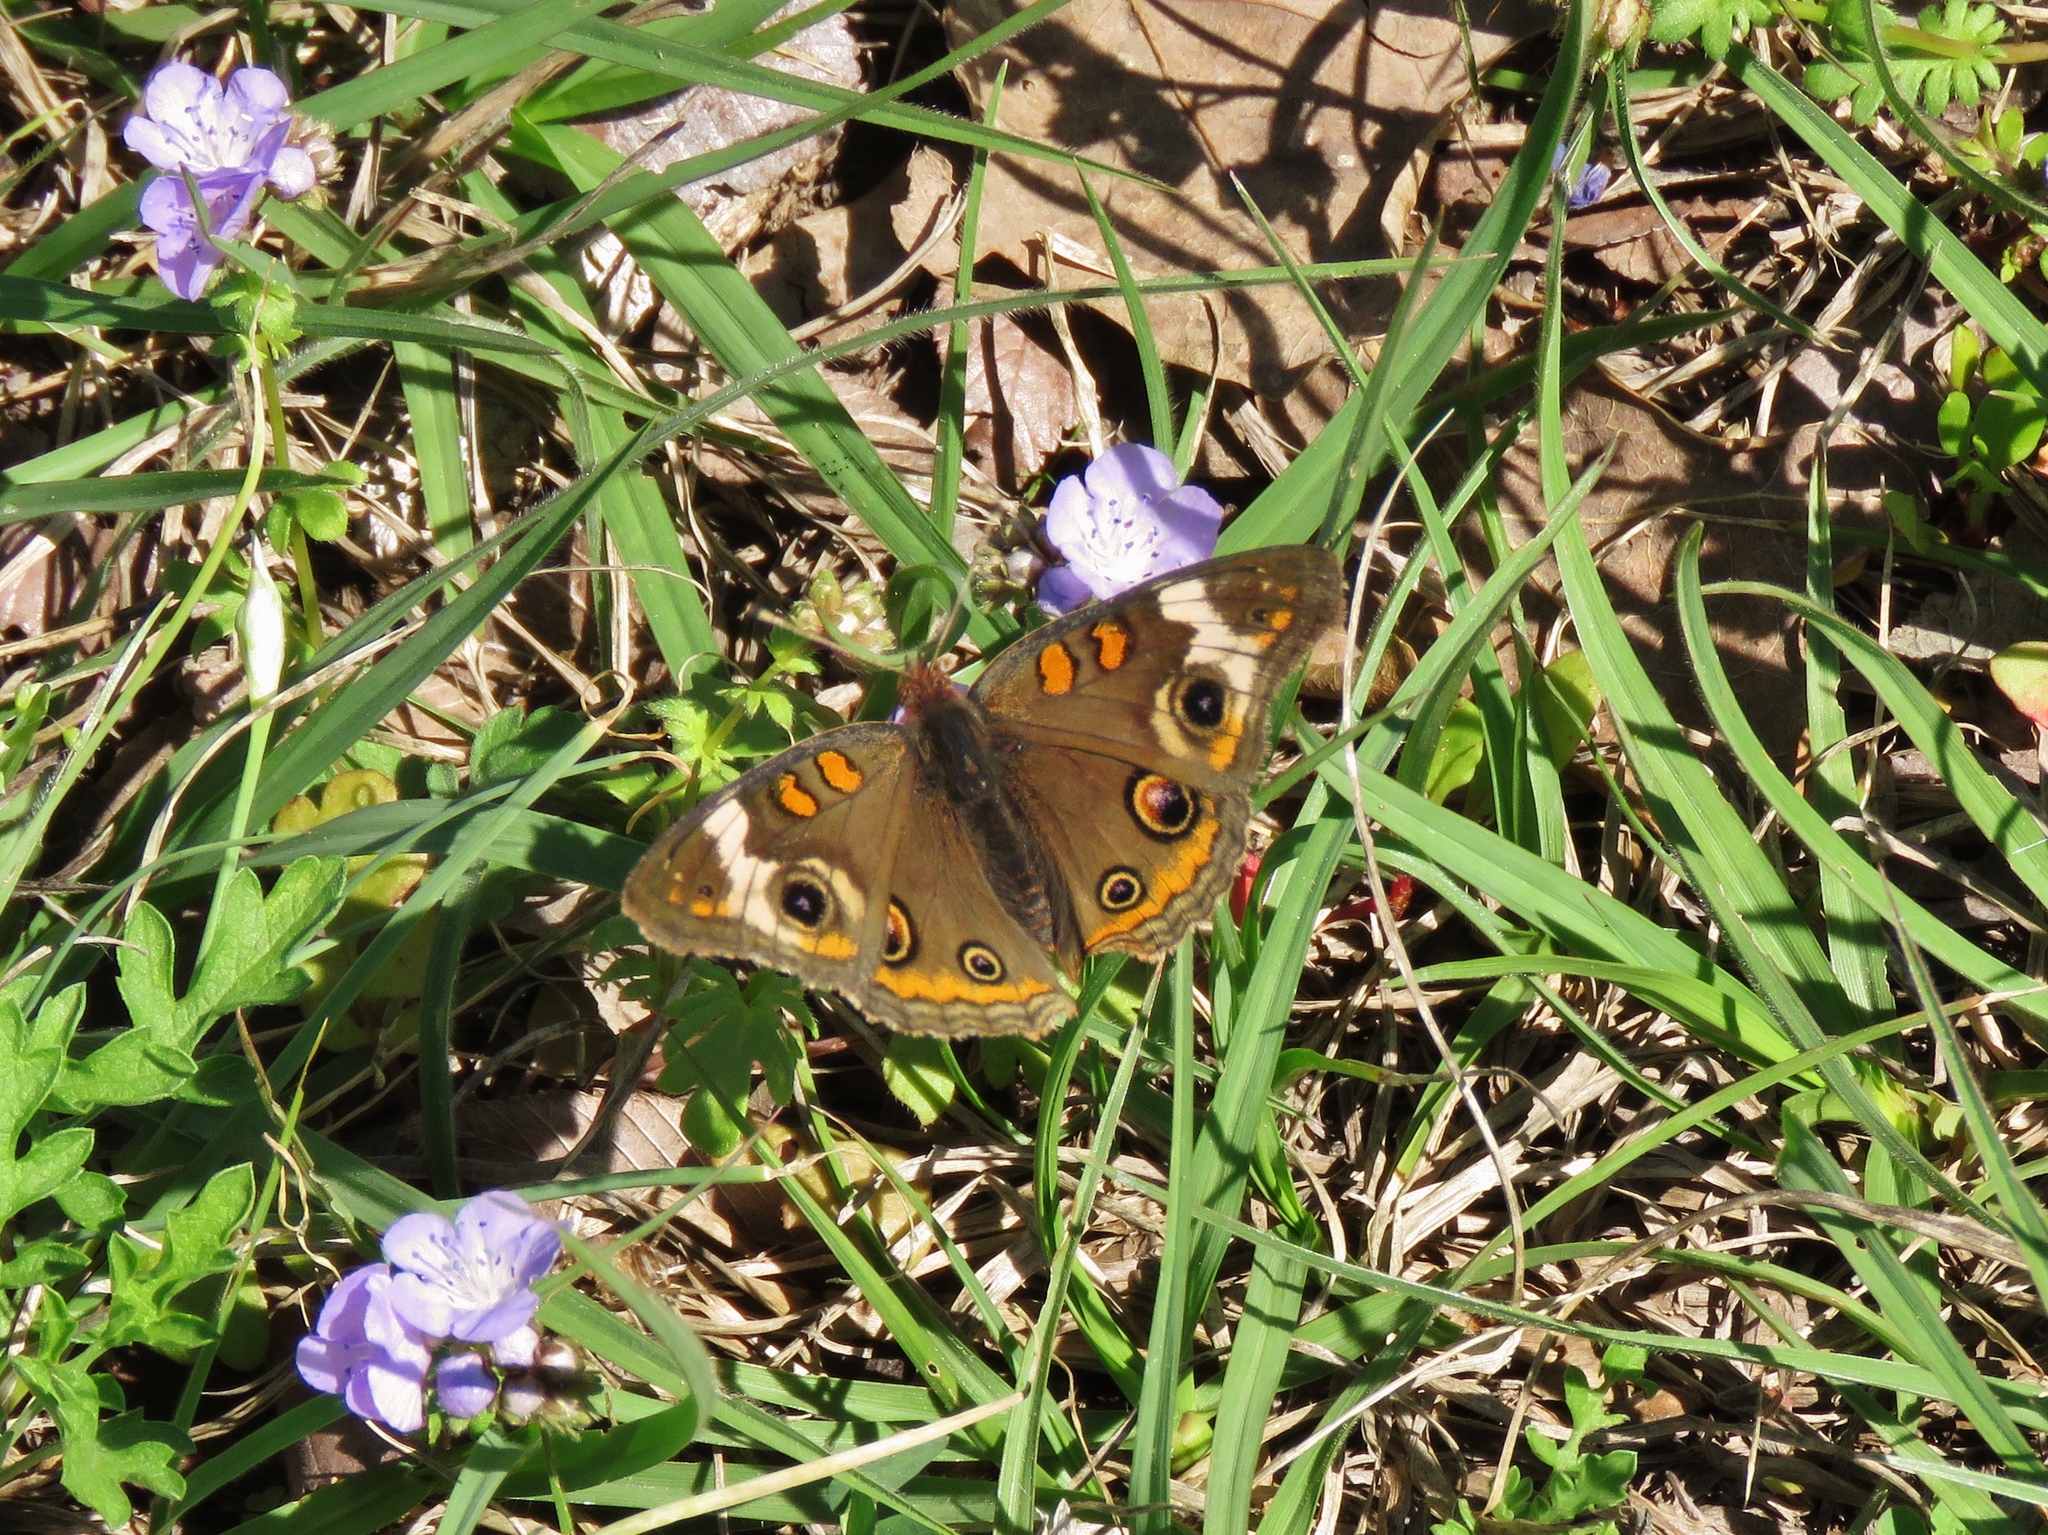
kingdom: Animalia
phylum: Arthropoda
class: Insecta
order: Lepidoptera
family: Nymphalidae
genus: Junonia
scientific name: Junonia coenia
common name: Common buckeye
